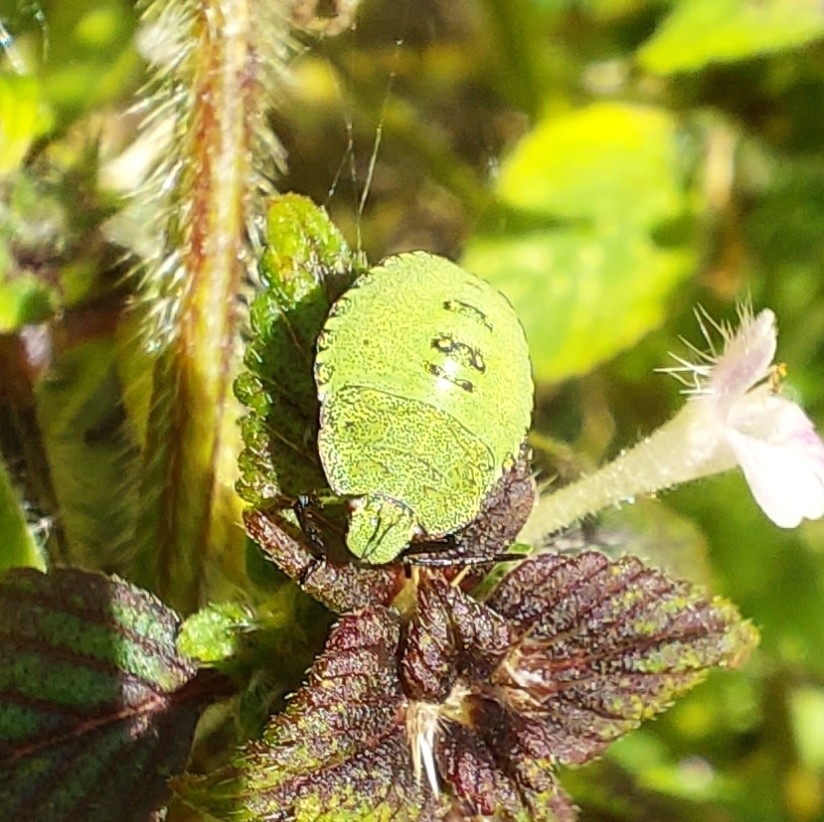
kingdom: Animalia
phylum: Arthropoda
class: Insecta
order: Hemiptera
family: Pentatomidae
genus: Palomena
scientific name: Palomena prasina
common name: Green shieldbug
